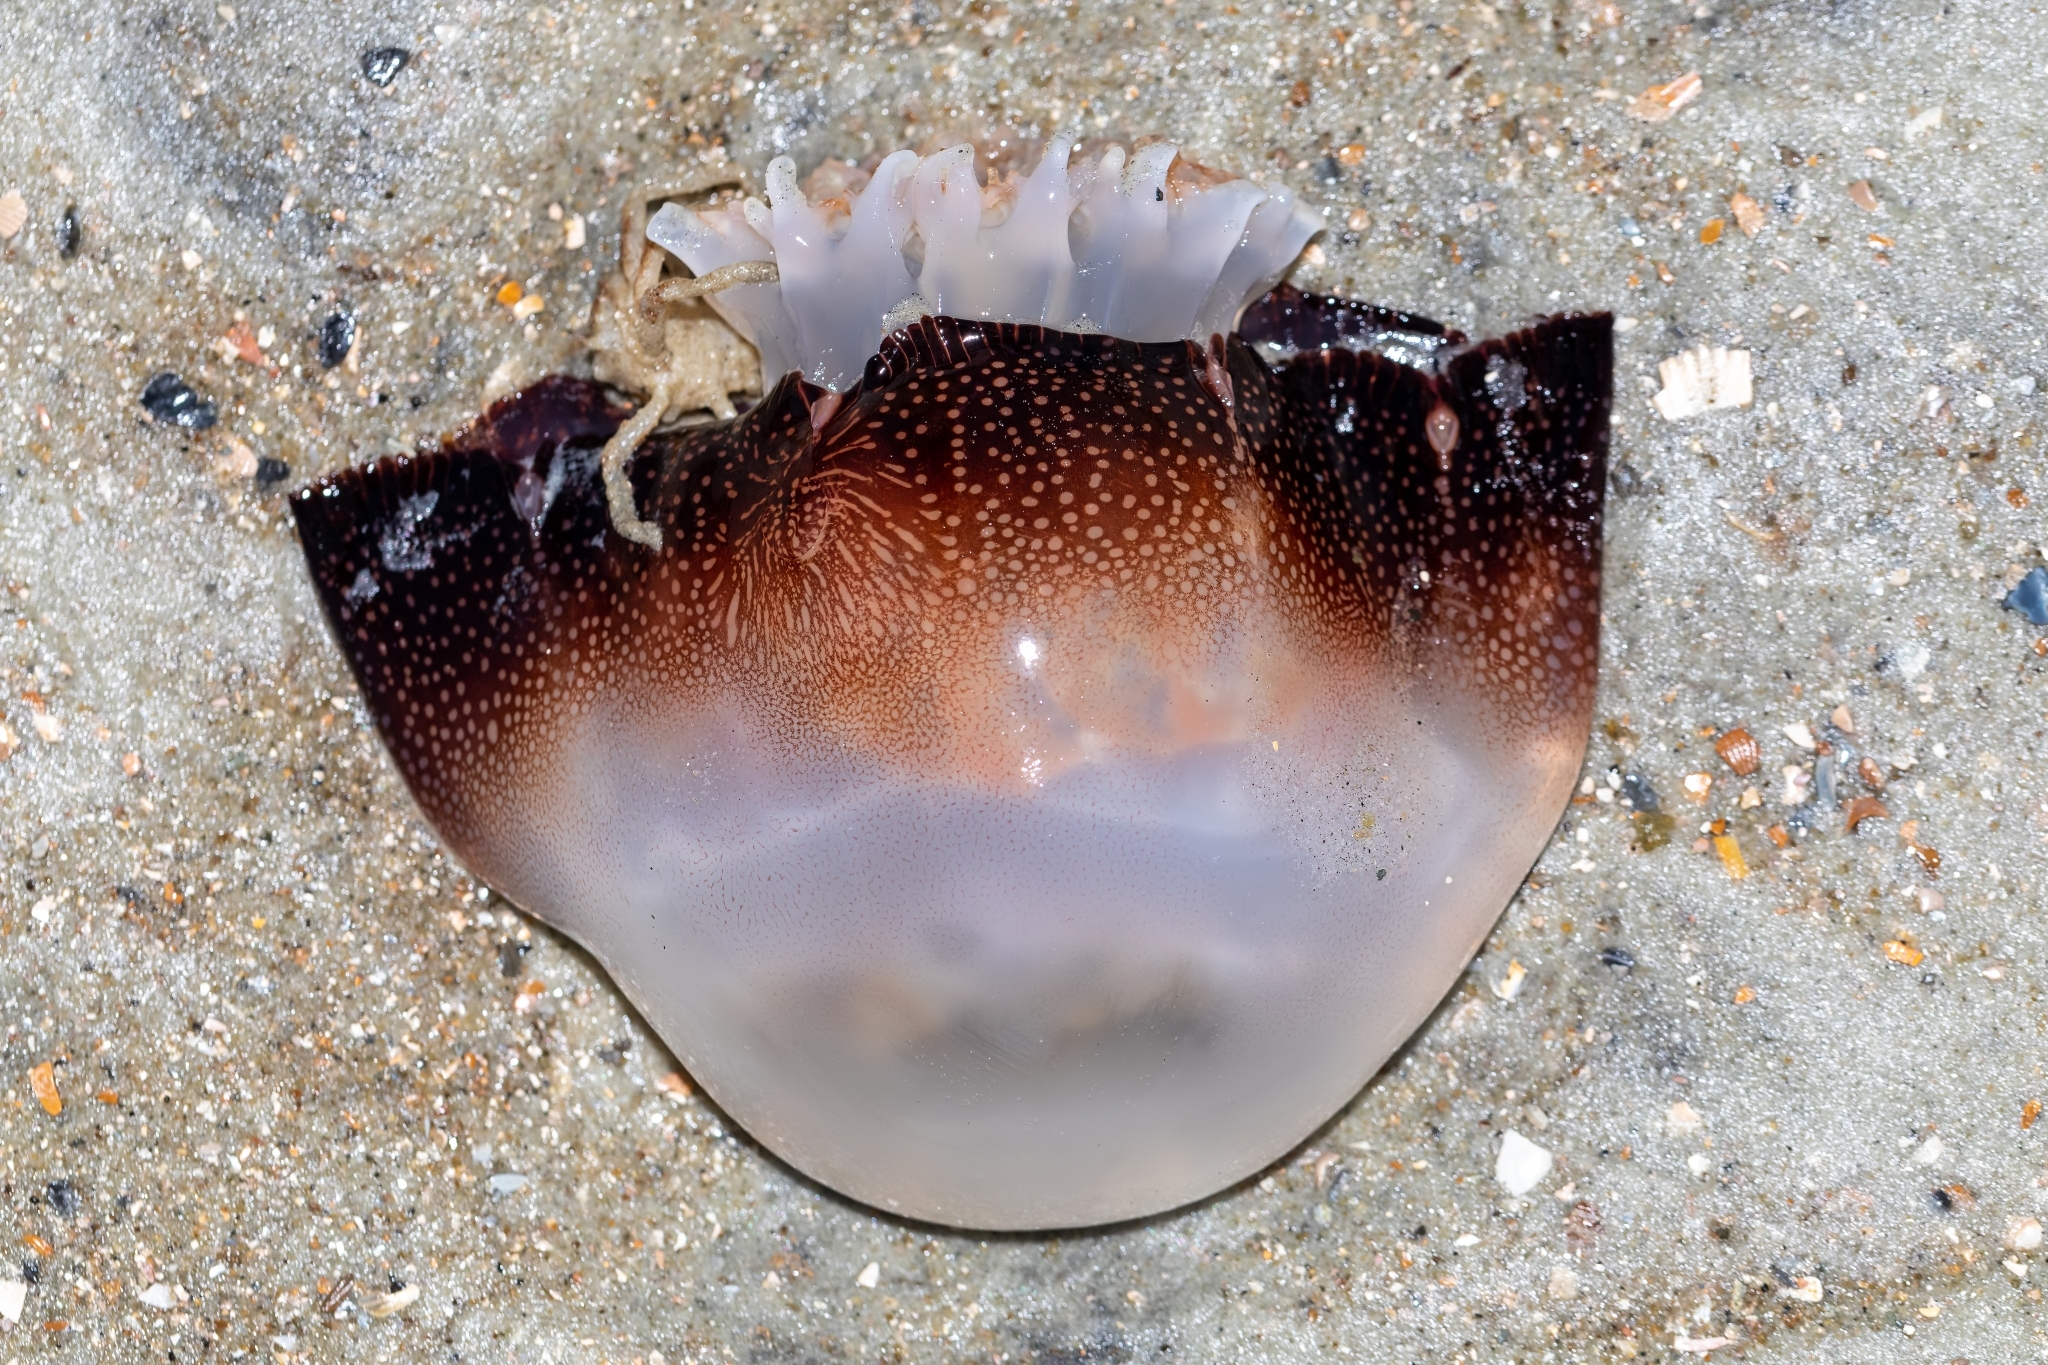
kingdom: Animalia
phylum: Cnidaria
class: Scyphozoa
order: Rhizostomeae
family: Stomolophidae
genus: Stomolophus
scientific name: Stomolophus meleagris
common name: Cabbagehead
